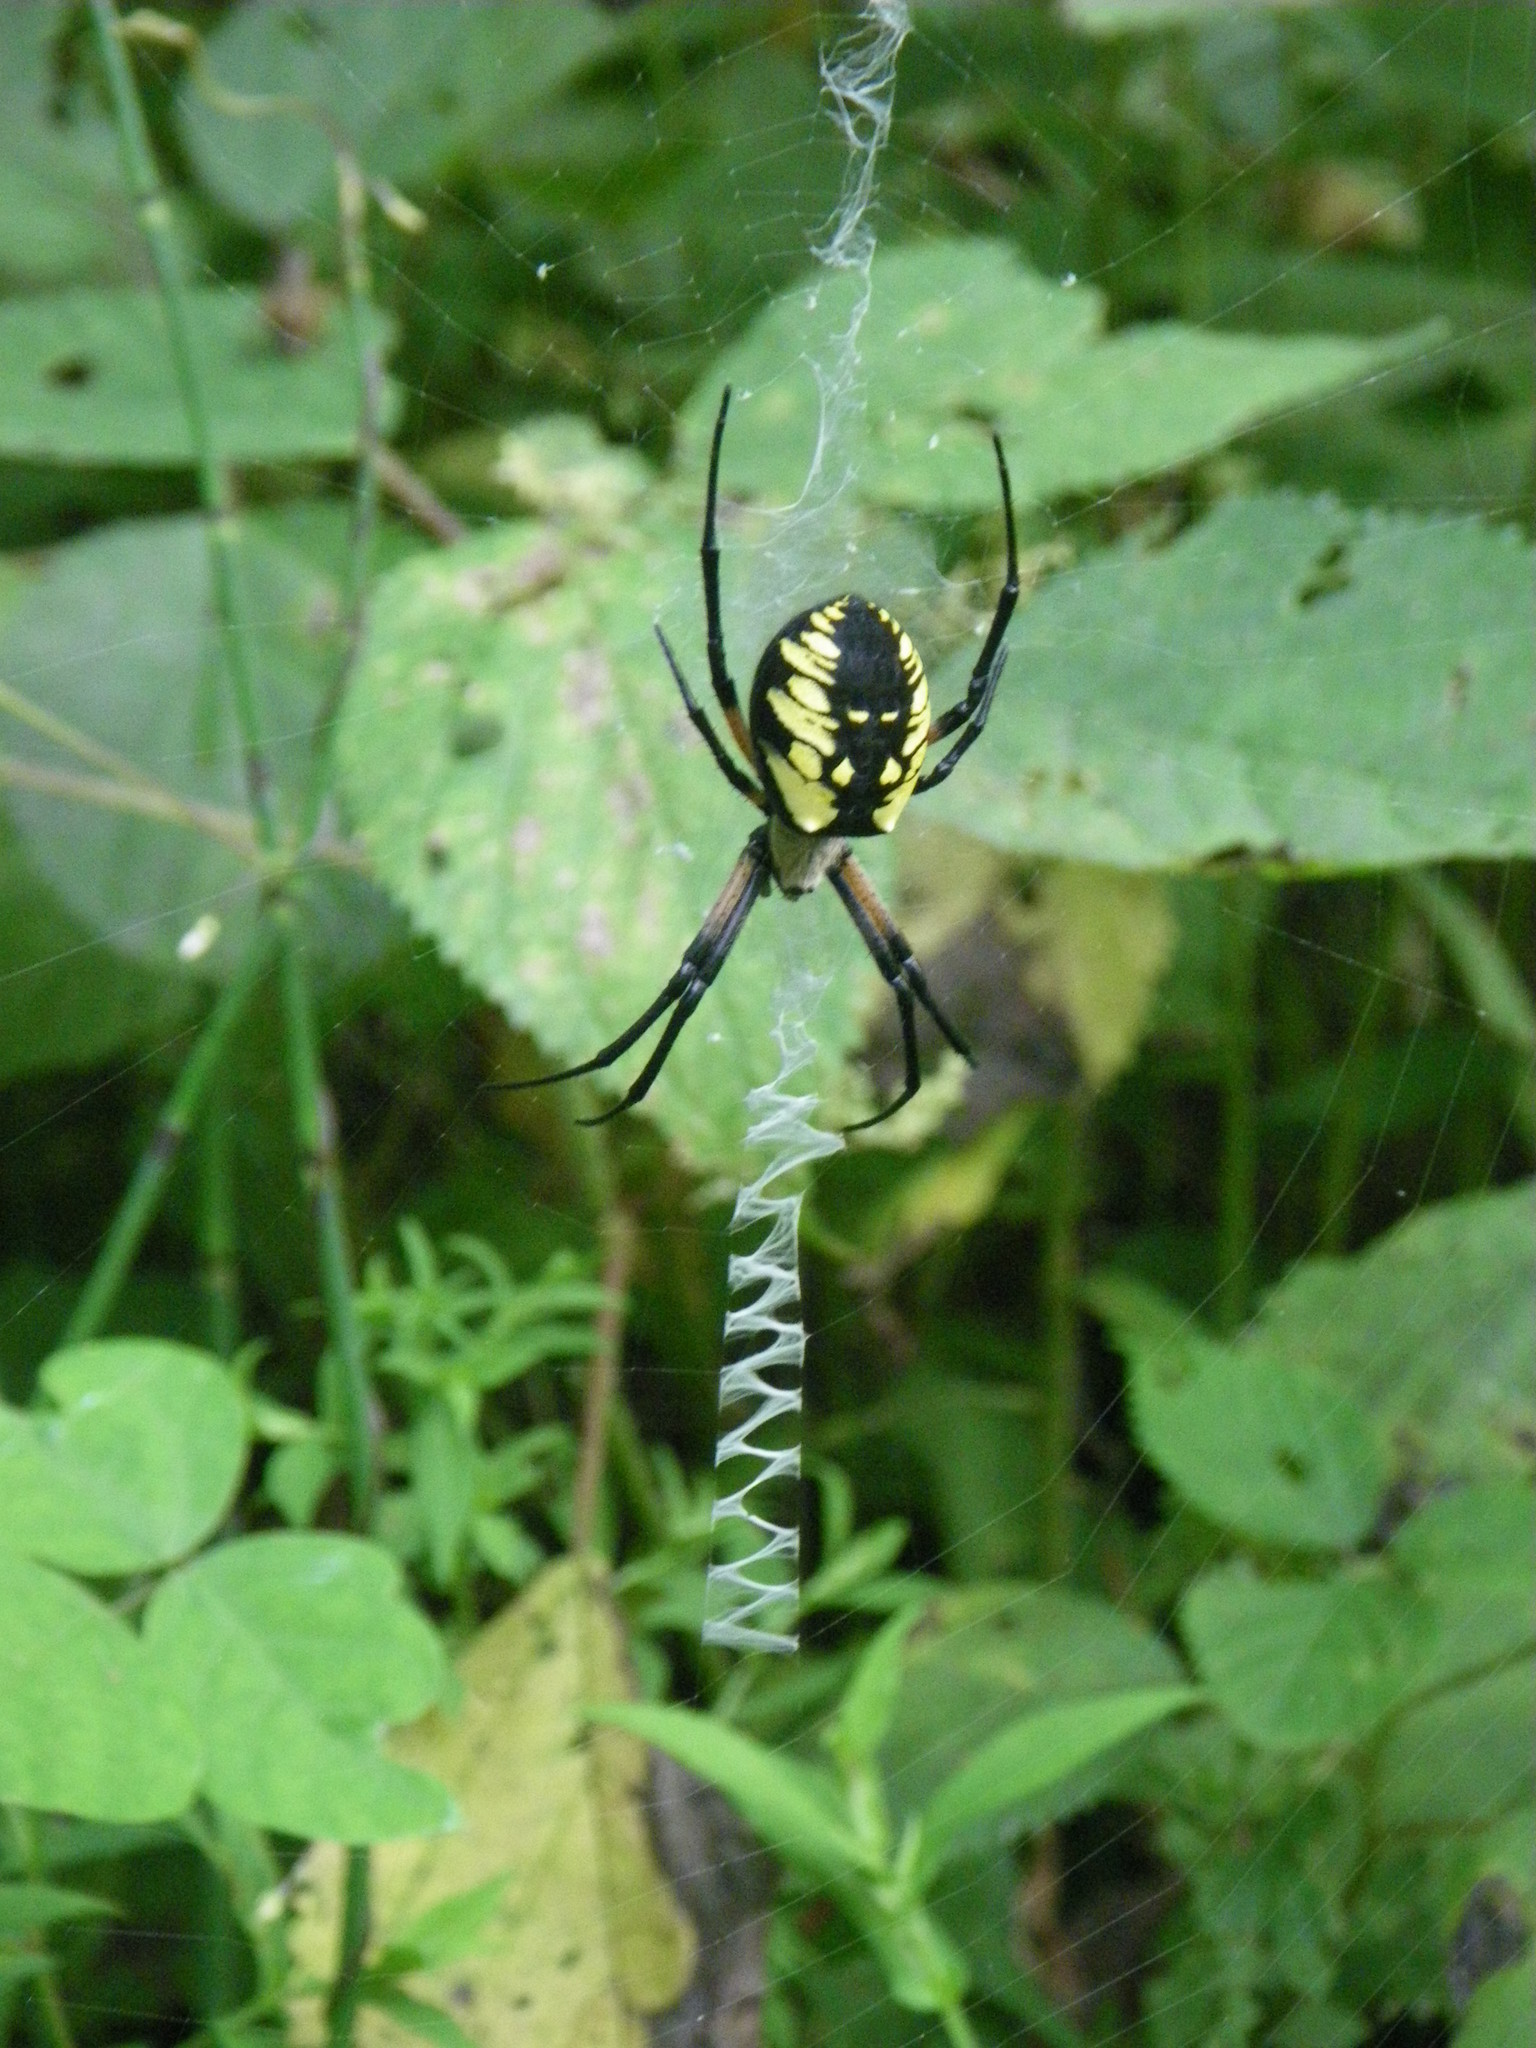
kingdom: Animalia
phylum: Arthropoda
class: Arachnida
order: Araneae
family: Araneidae
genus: Argiope
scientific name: Argiope aurantia
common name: Orb weavers
